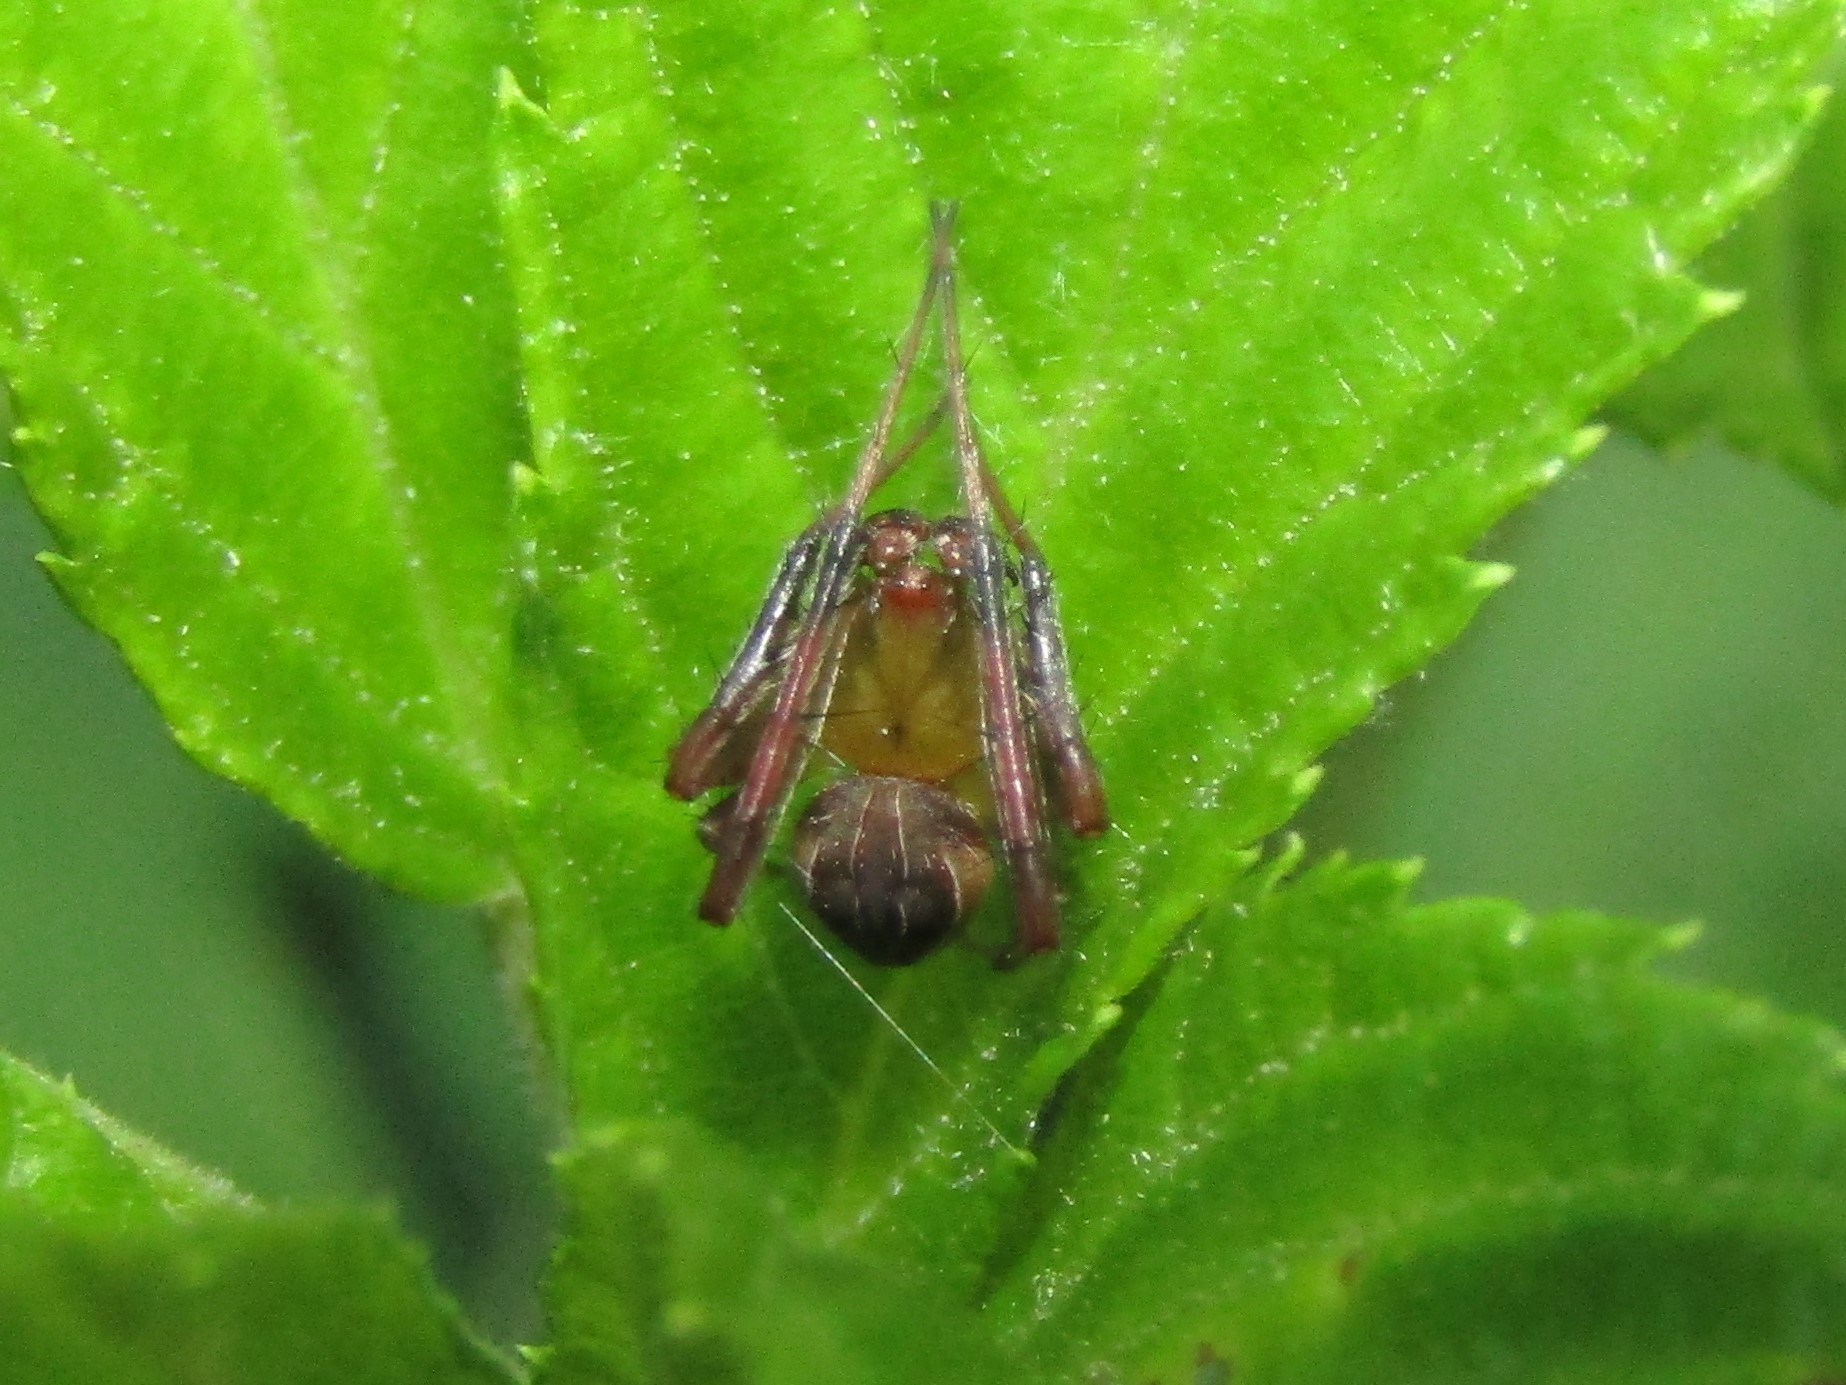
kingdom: Animalia
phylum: Arthropoda
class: Arachnida
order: Araneae
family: Araneidae
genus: Acacesia
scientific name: Acacesia hamata
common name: Orb weavers
